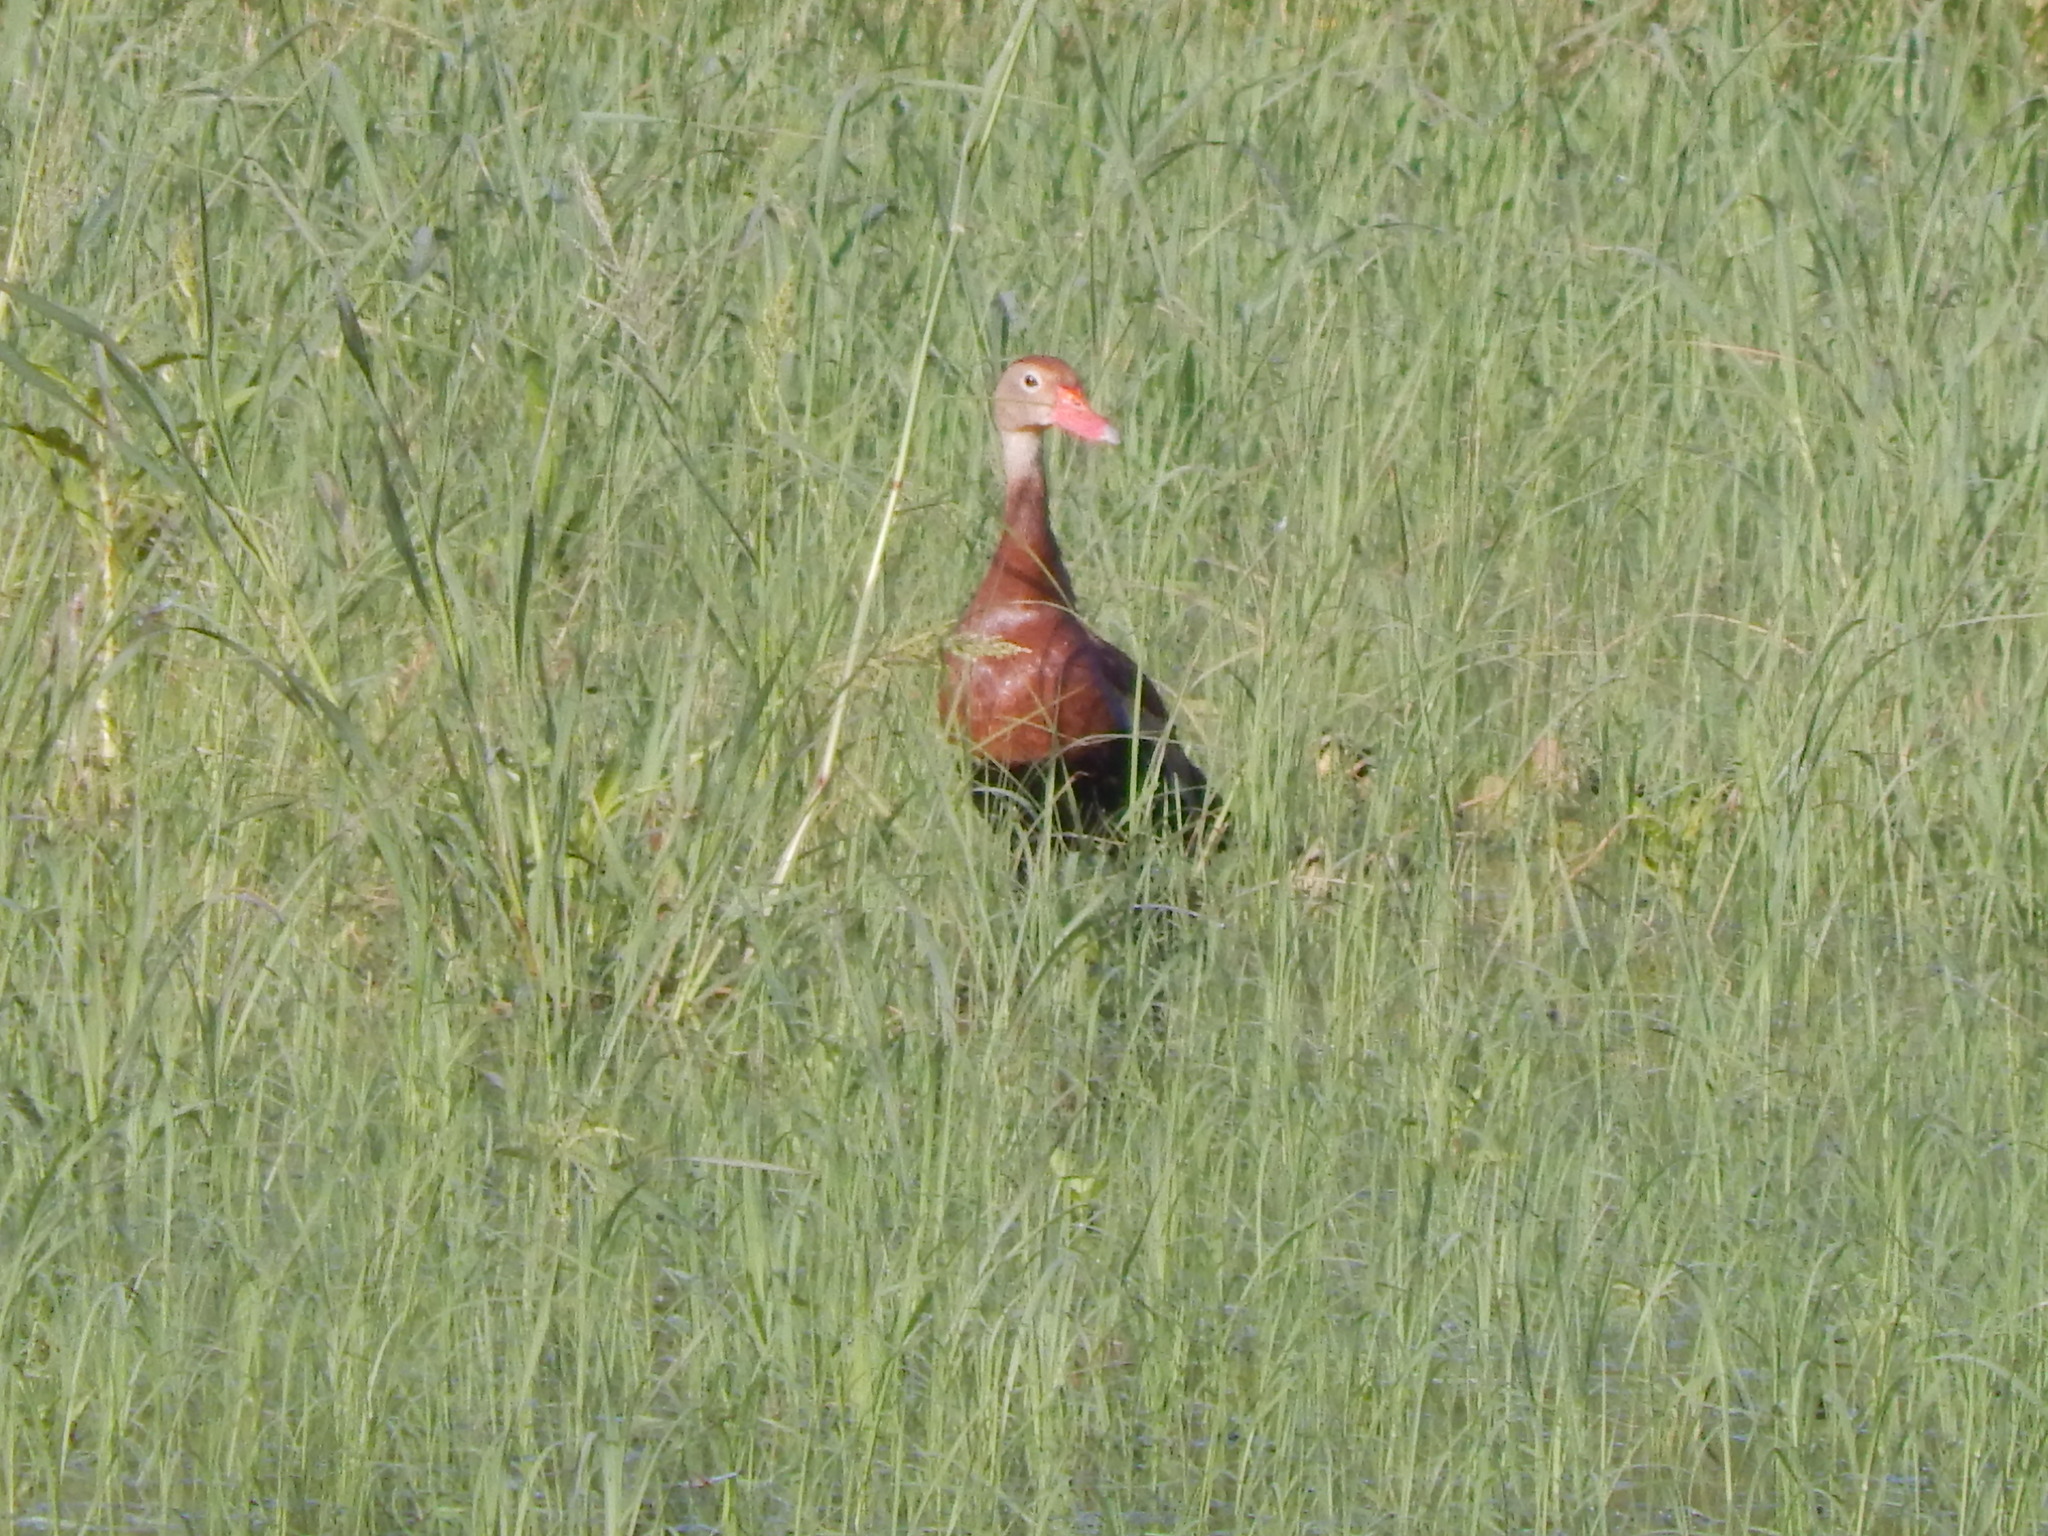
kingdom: Animalia
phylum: Chordata
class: Aves
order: Anseriformes
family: Anatidae
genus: Dendrocygna
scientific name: Dendrocygna autumnalis
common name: Black-bellied whistling duck
